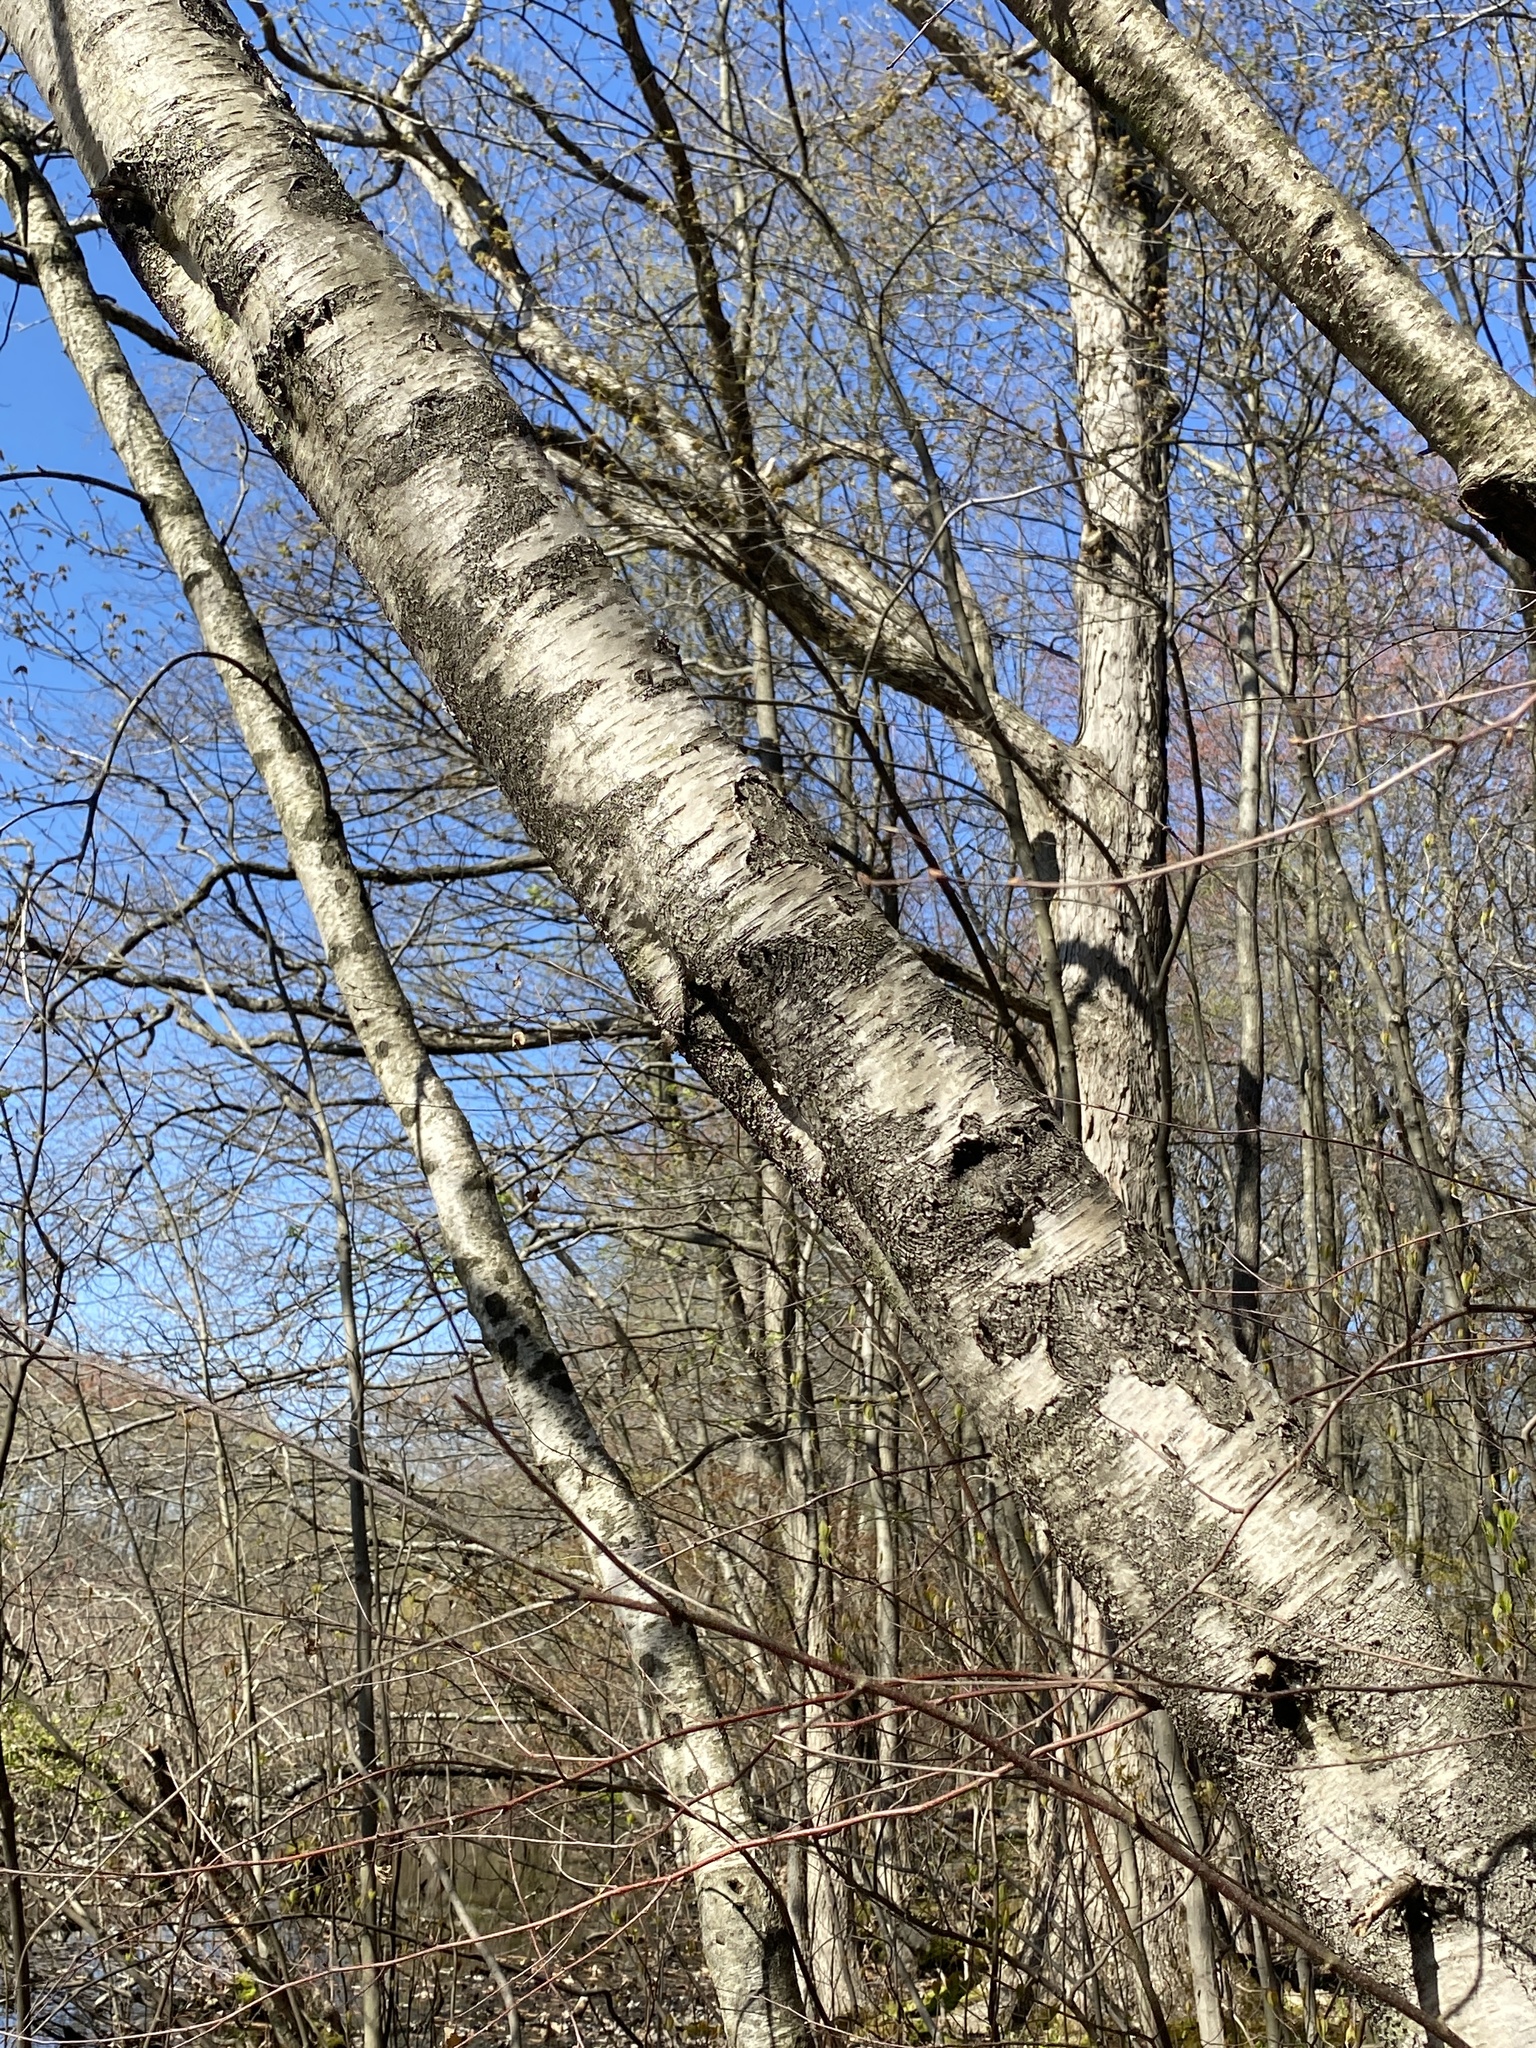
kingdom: Plantae
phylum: Tracheophyta
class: Magnoliopsida
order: Fagales
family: Betulaceae
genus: Betula
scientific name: Betula populifolia
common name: Fire birch
